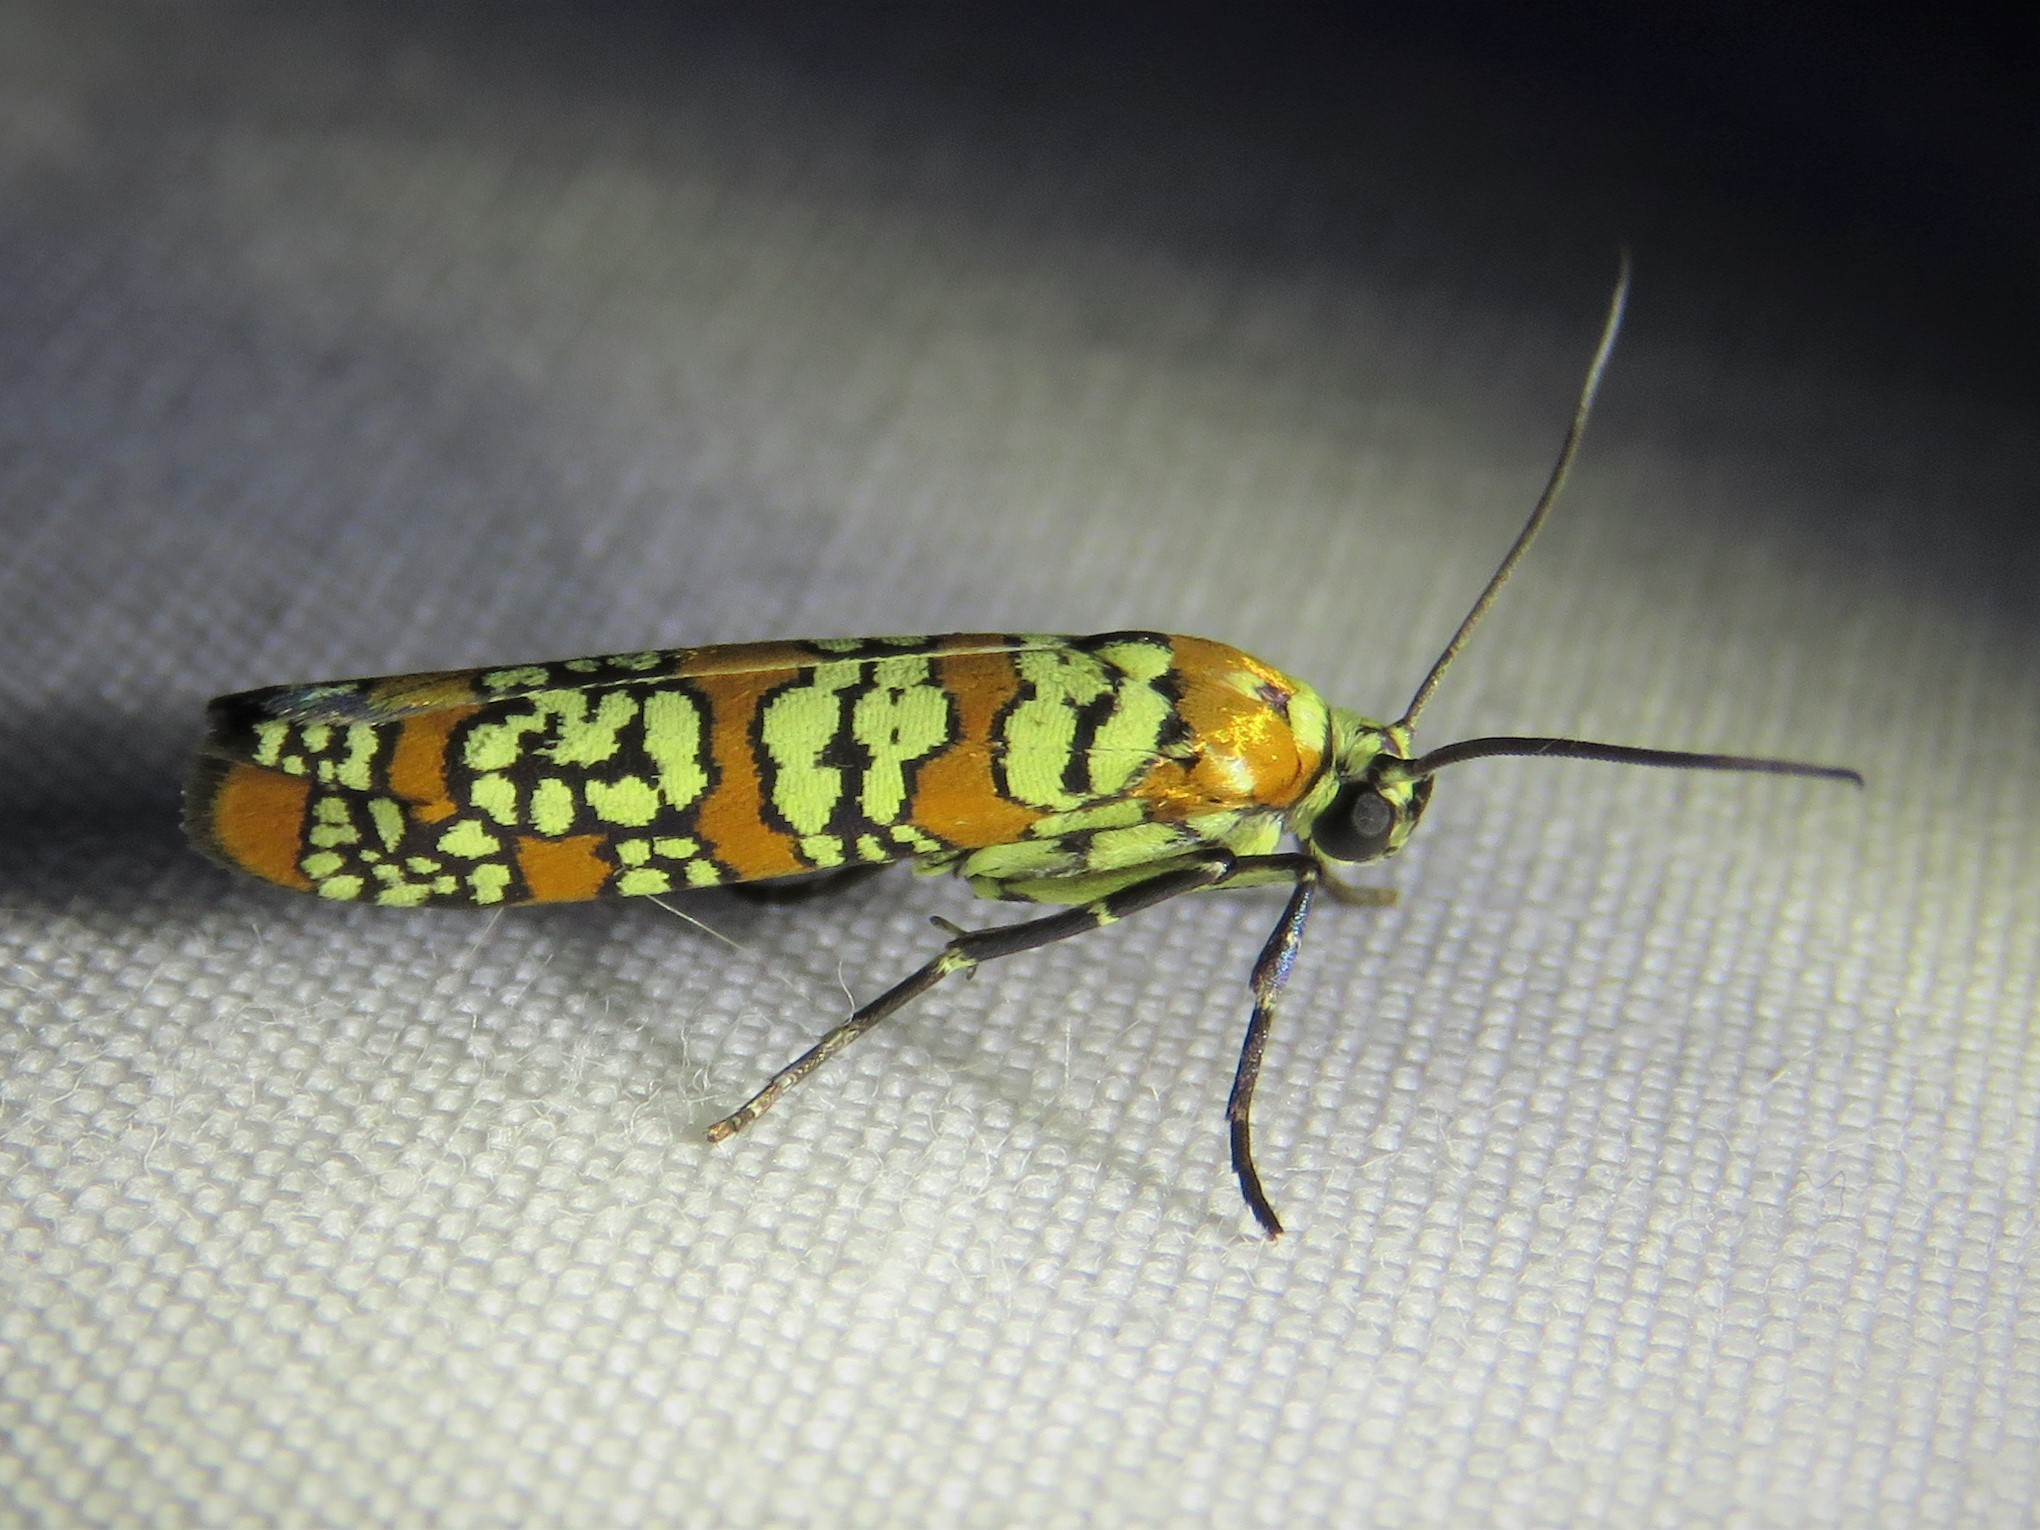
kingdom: Animalia
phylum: Arthropoda
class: Insecta
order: Lepidoptera
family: Attevidae
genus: Atteva
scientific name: Atteva punctella
